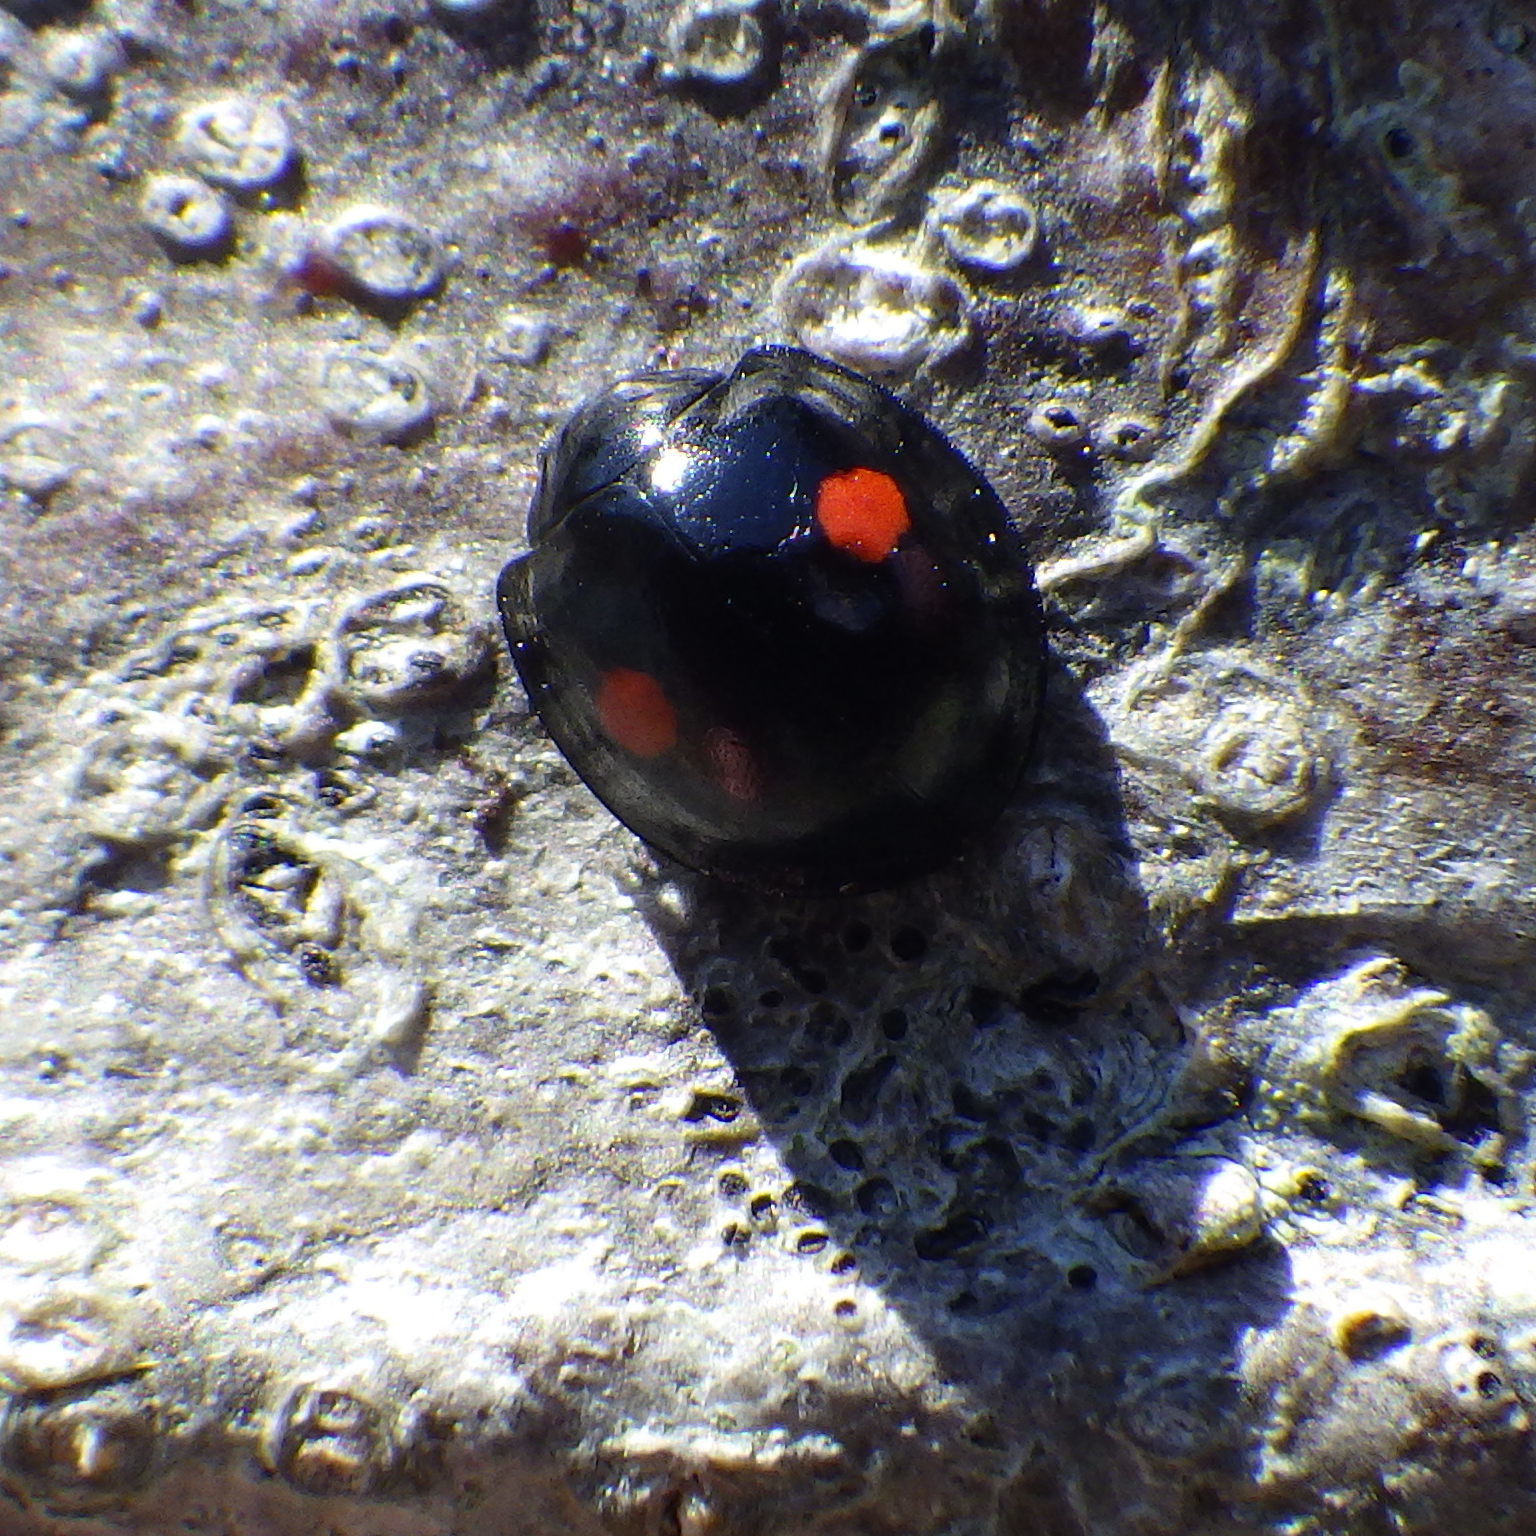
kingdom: Animalia
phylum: Arthropoda
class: Insecta
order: Coleoptera
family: Coccinellidae
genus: Chilocorus
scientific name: Chilocorus stigma
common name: Twicestabbed lady beetle
